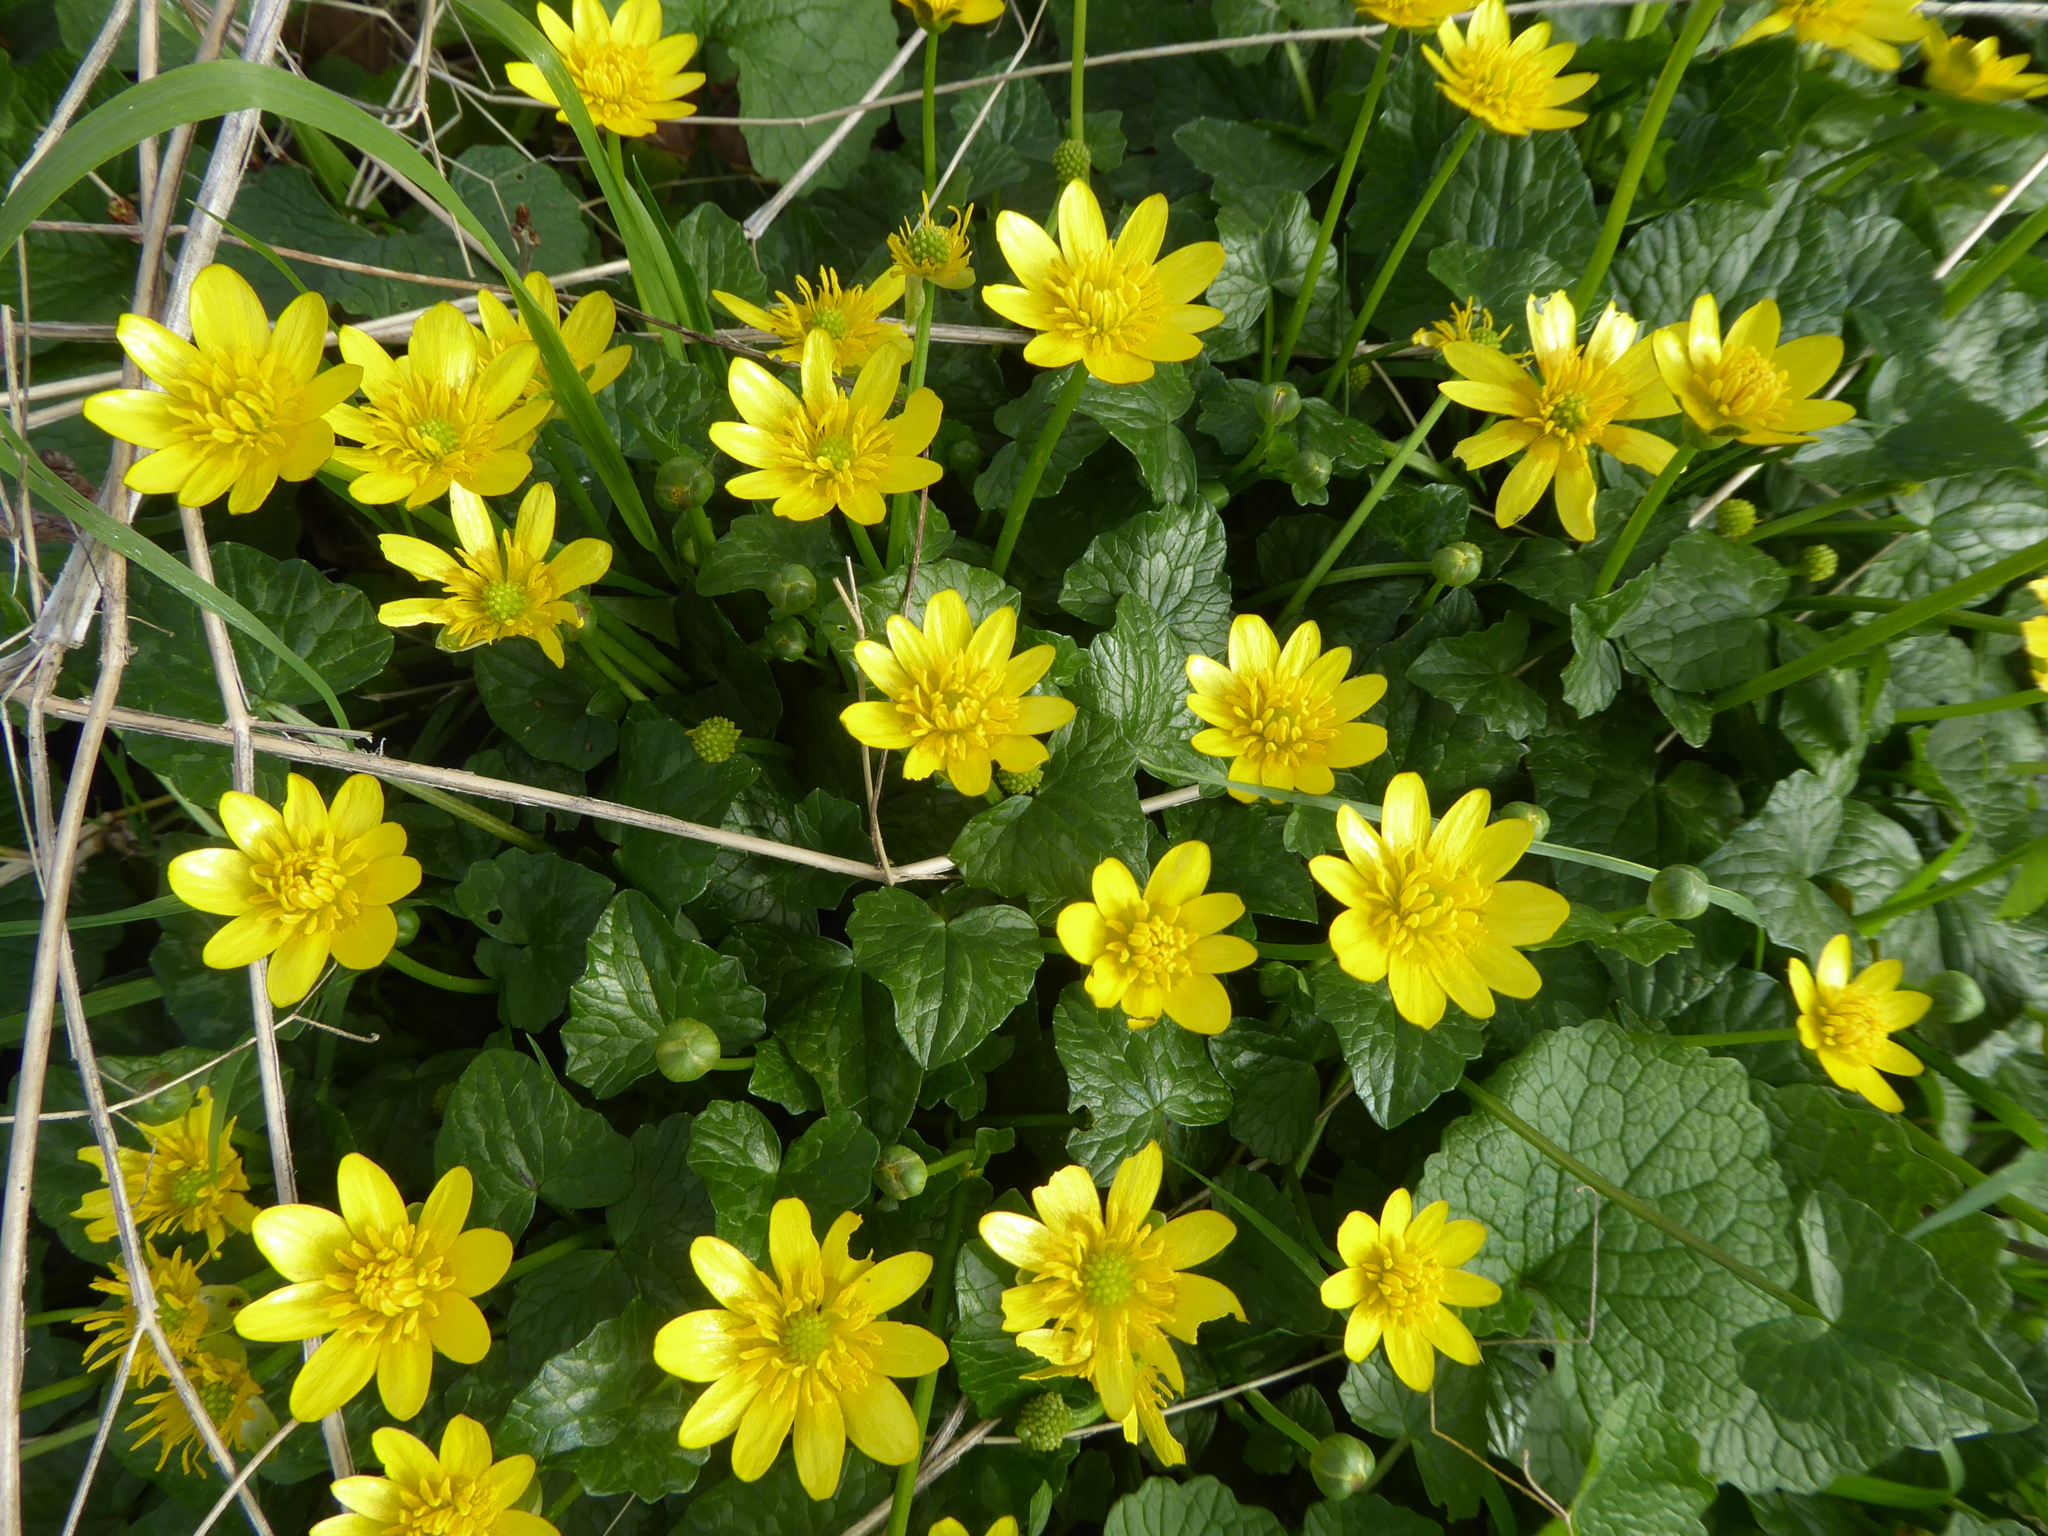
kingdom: Plantae
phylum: Tracheophyta
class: Magnoliopsida
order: Ranunculales
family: Ranunculaceae
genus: Ficaria
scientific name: Ficaria verna
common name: Lesser celandine
